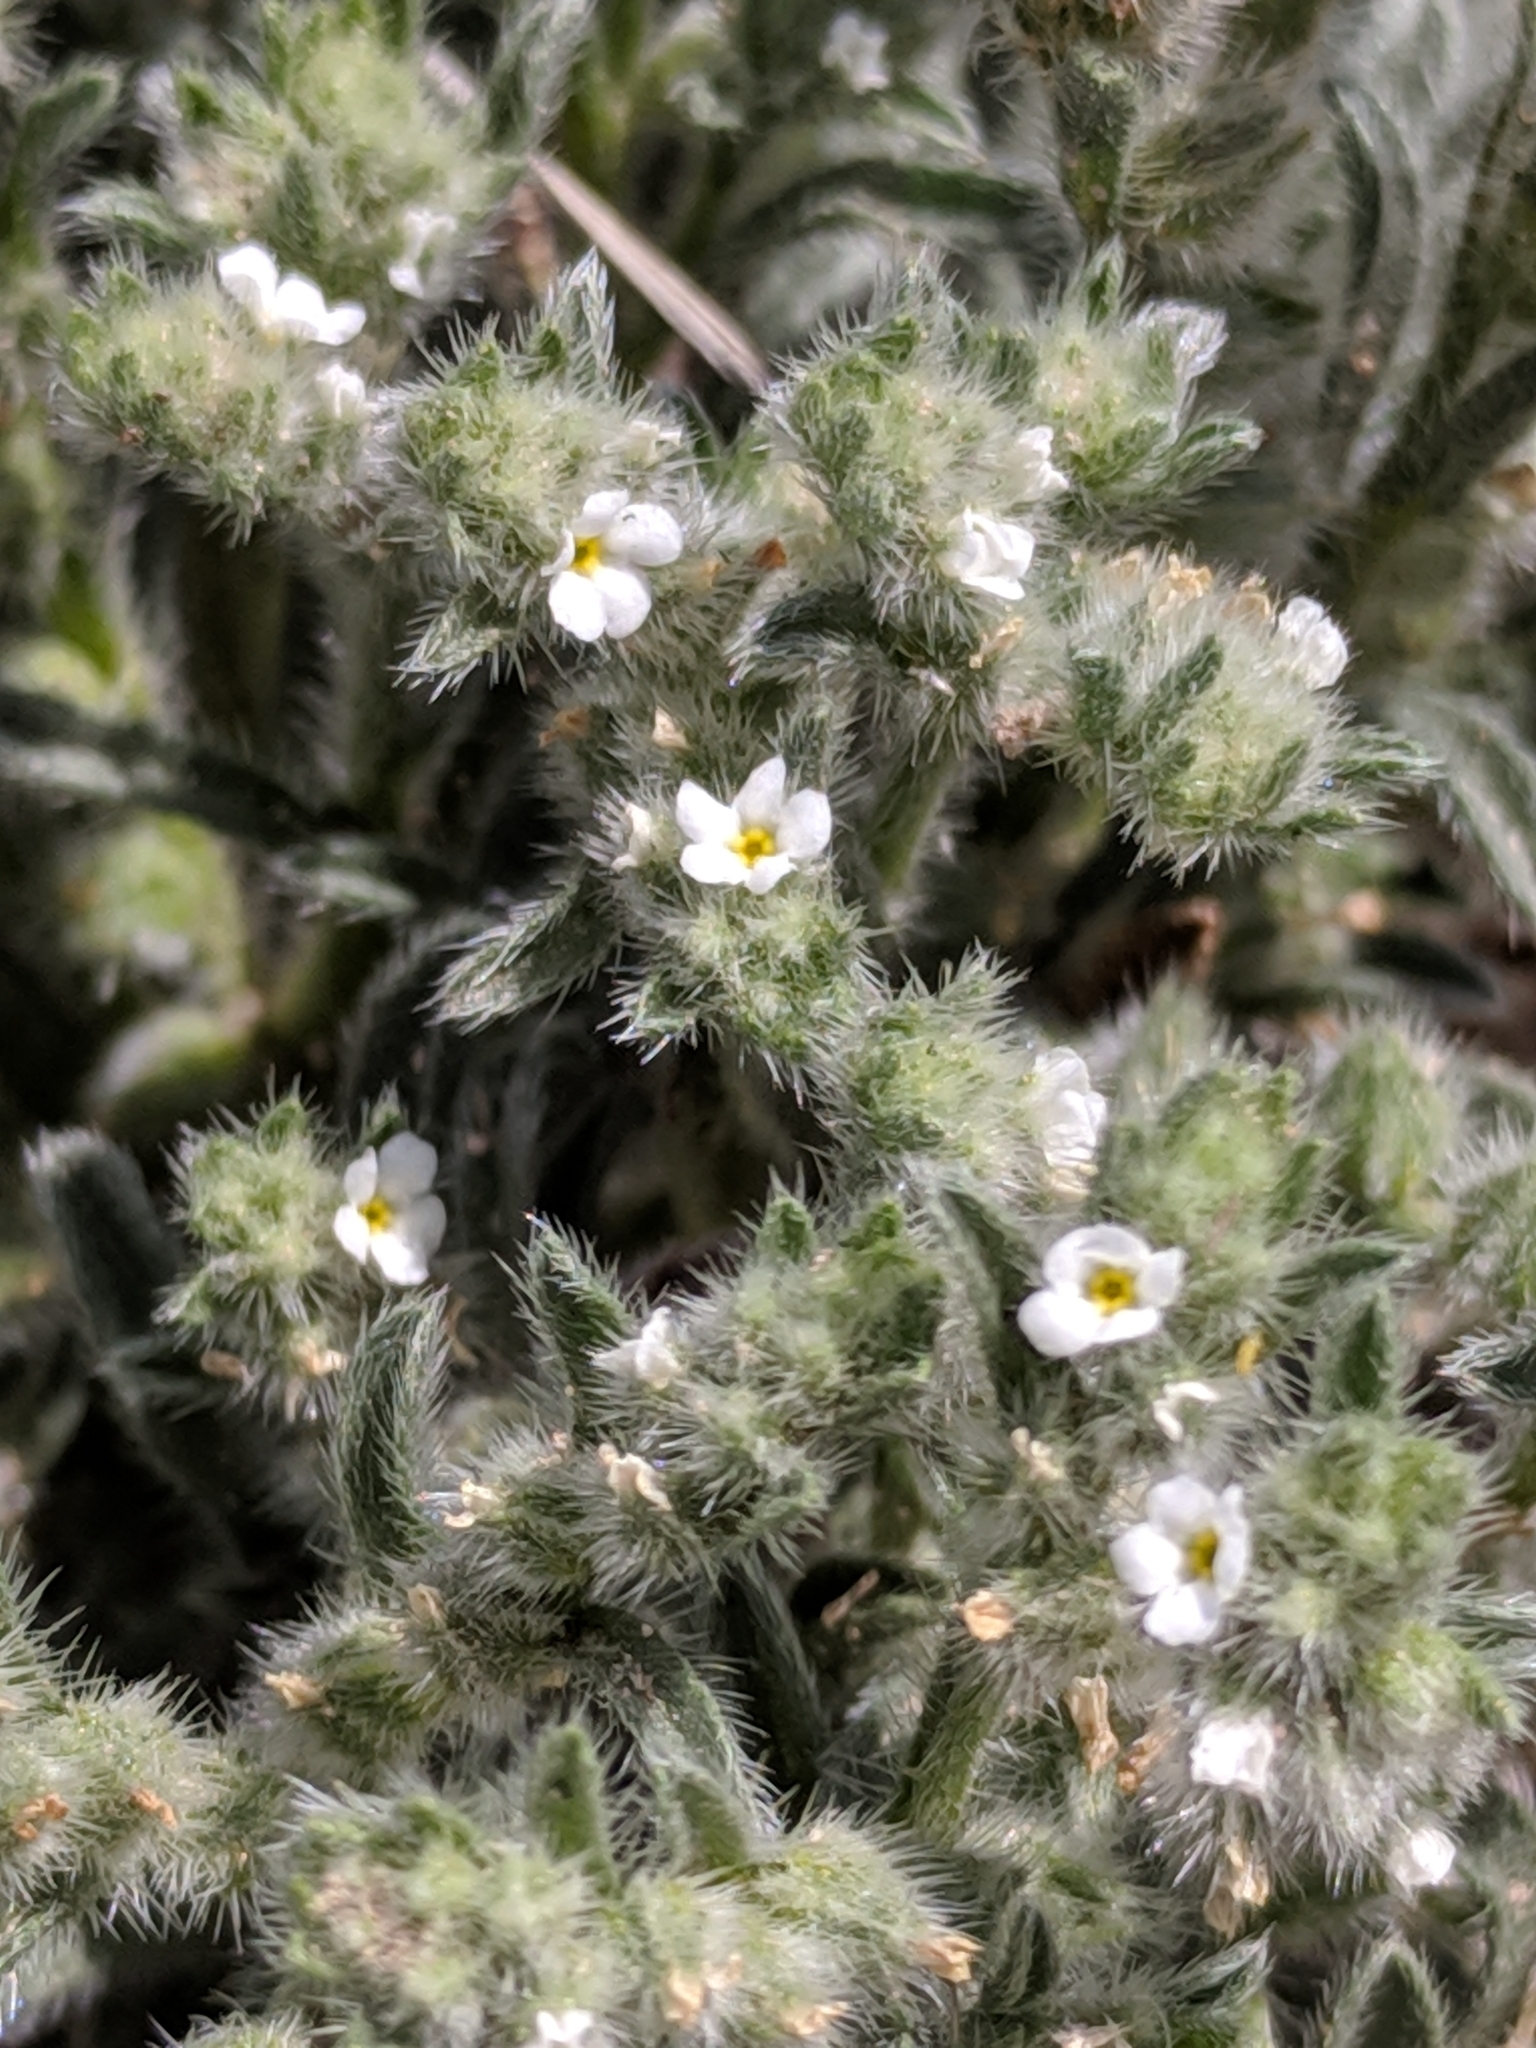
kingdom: Plantae
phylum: Tracheophyta
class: Magnoliopsida
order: Boraginales
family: Boraginaceae
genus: Johnstonella
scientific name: Johnstonella mexicana
